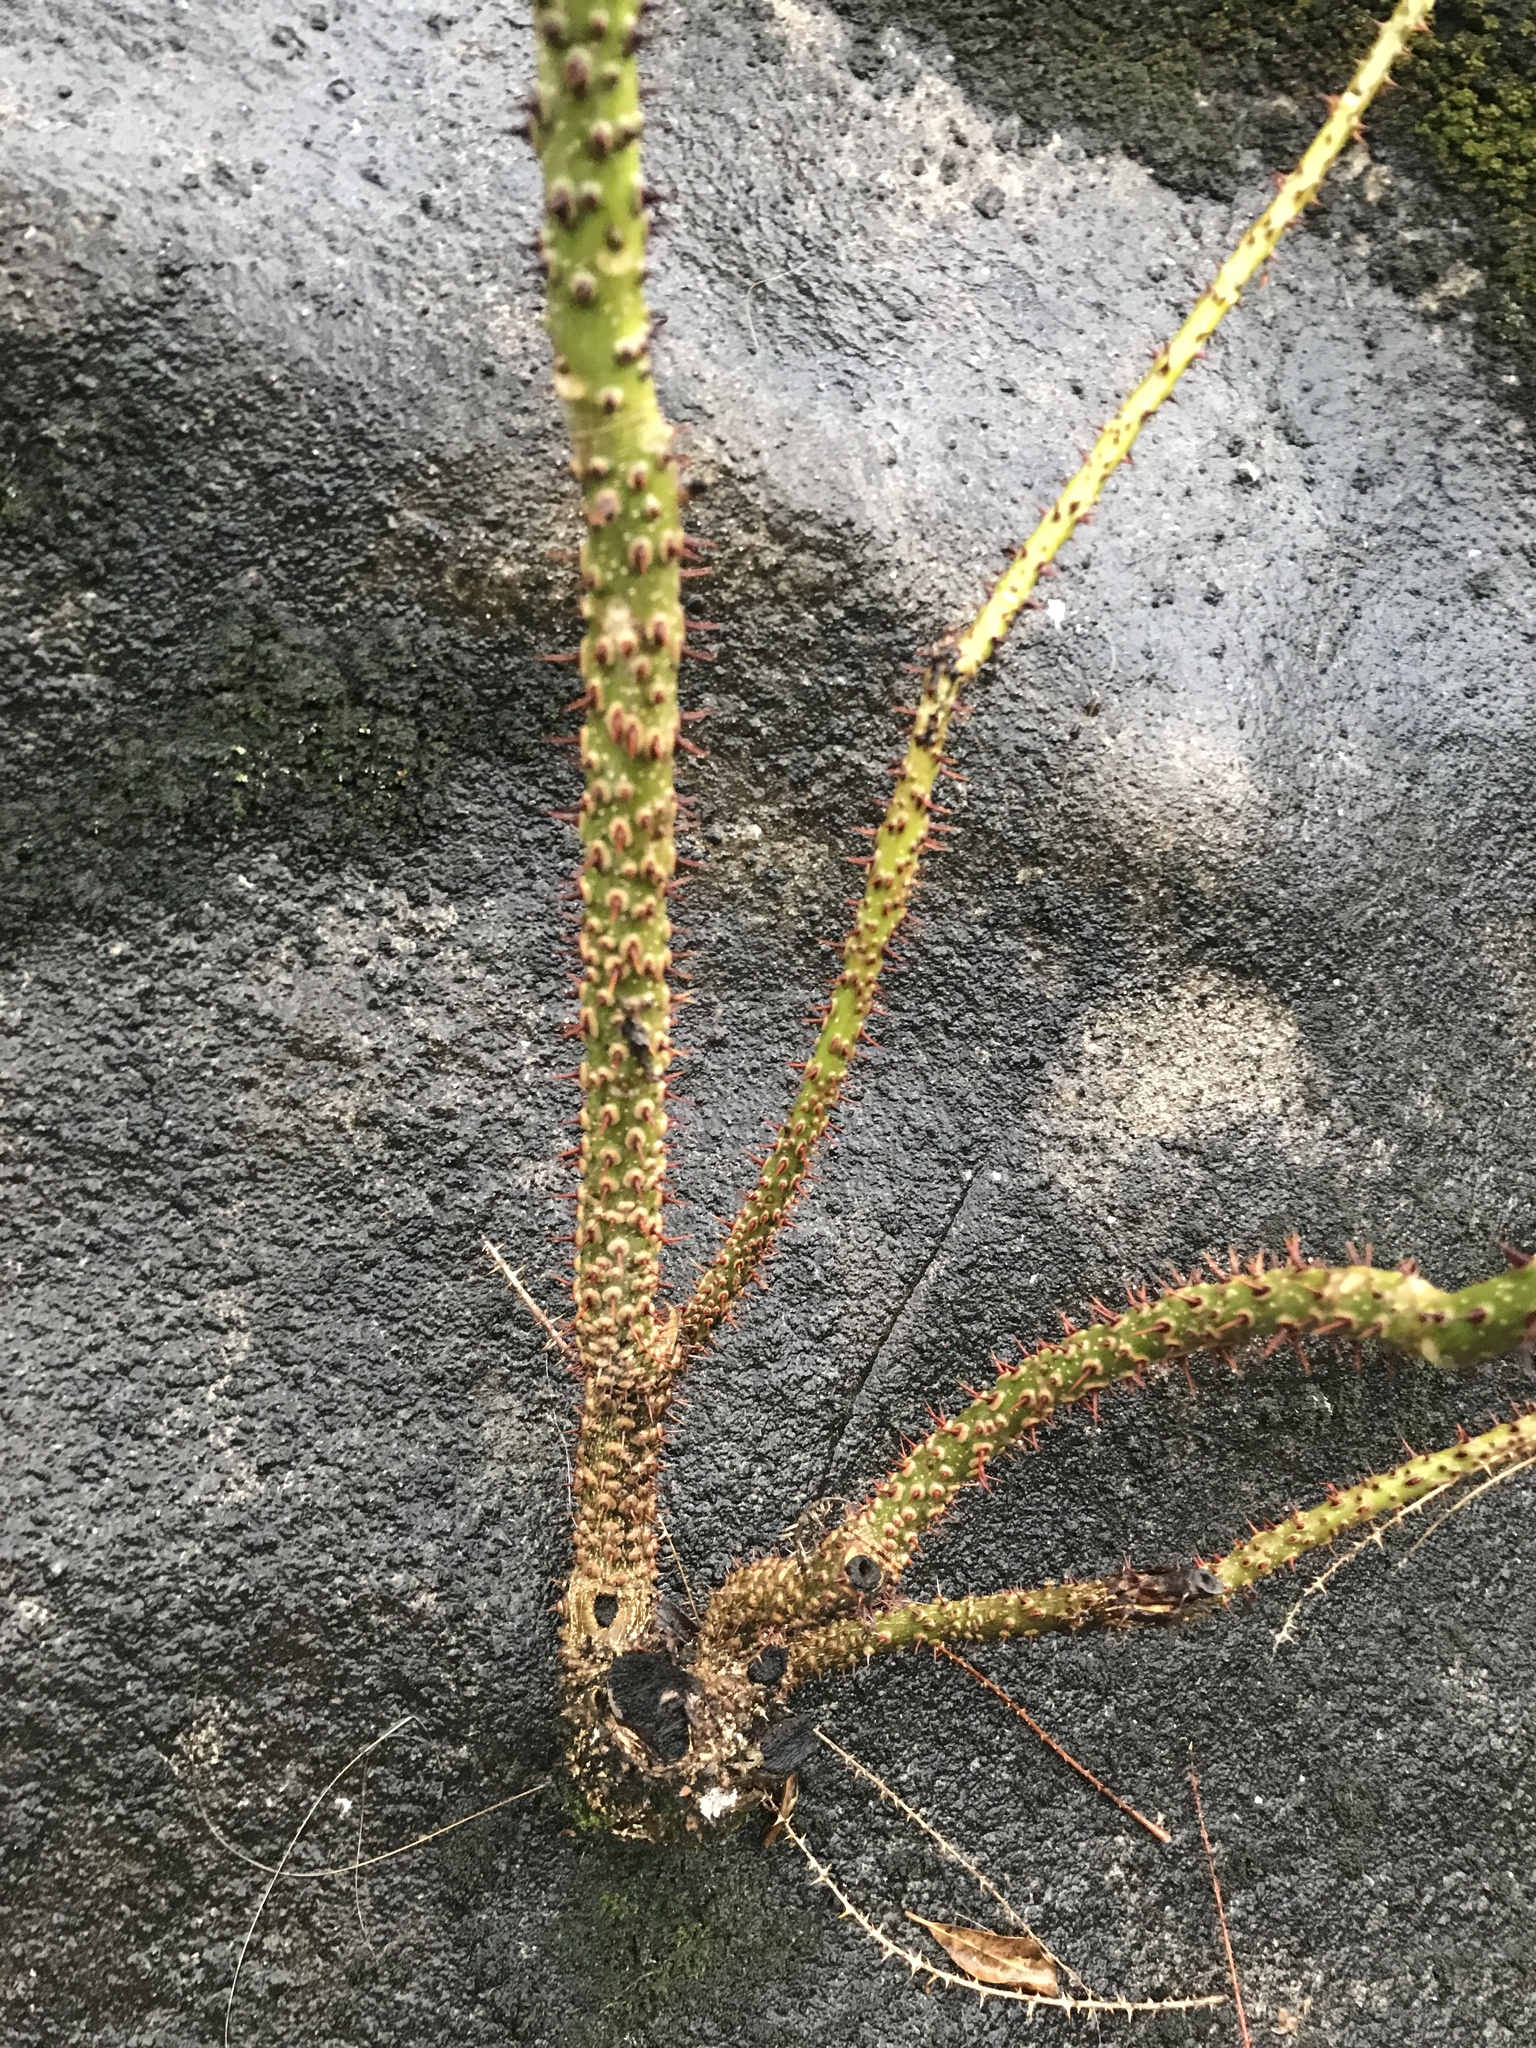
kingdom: Plantae
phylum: Tracheophyta
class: Magnoliopsida
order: Sapindales
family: Rutaceae
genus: Zanthoxylum
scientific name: Zanthoxylum ailanthoides
